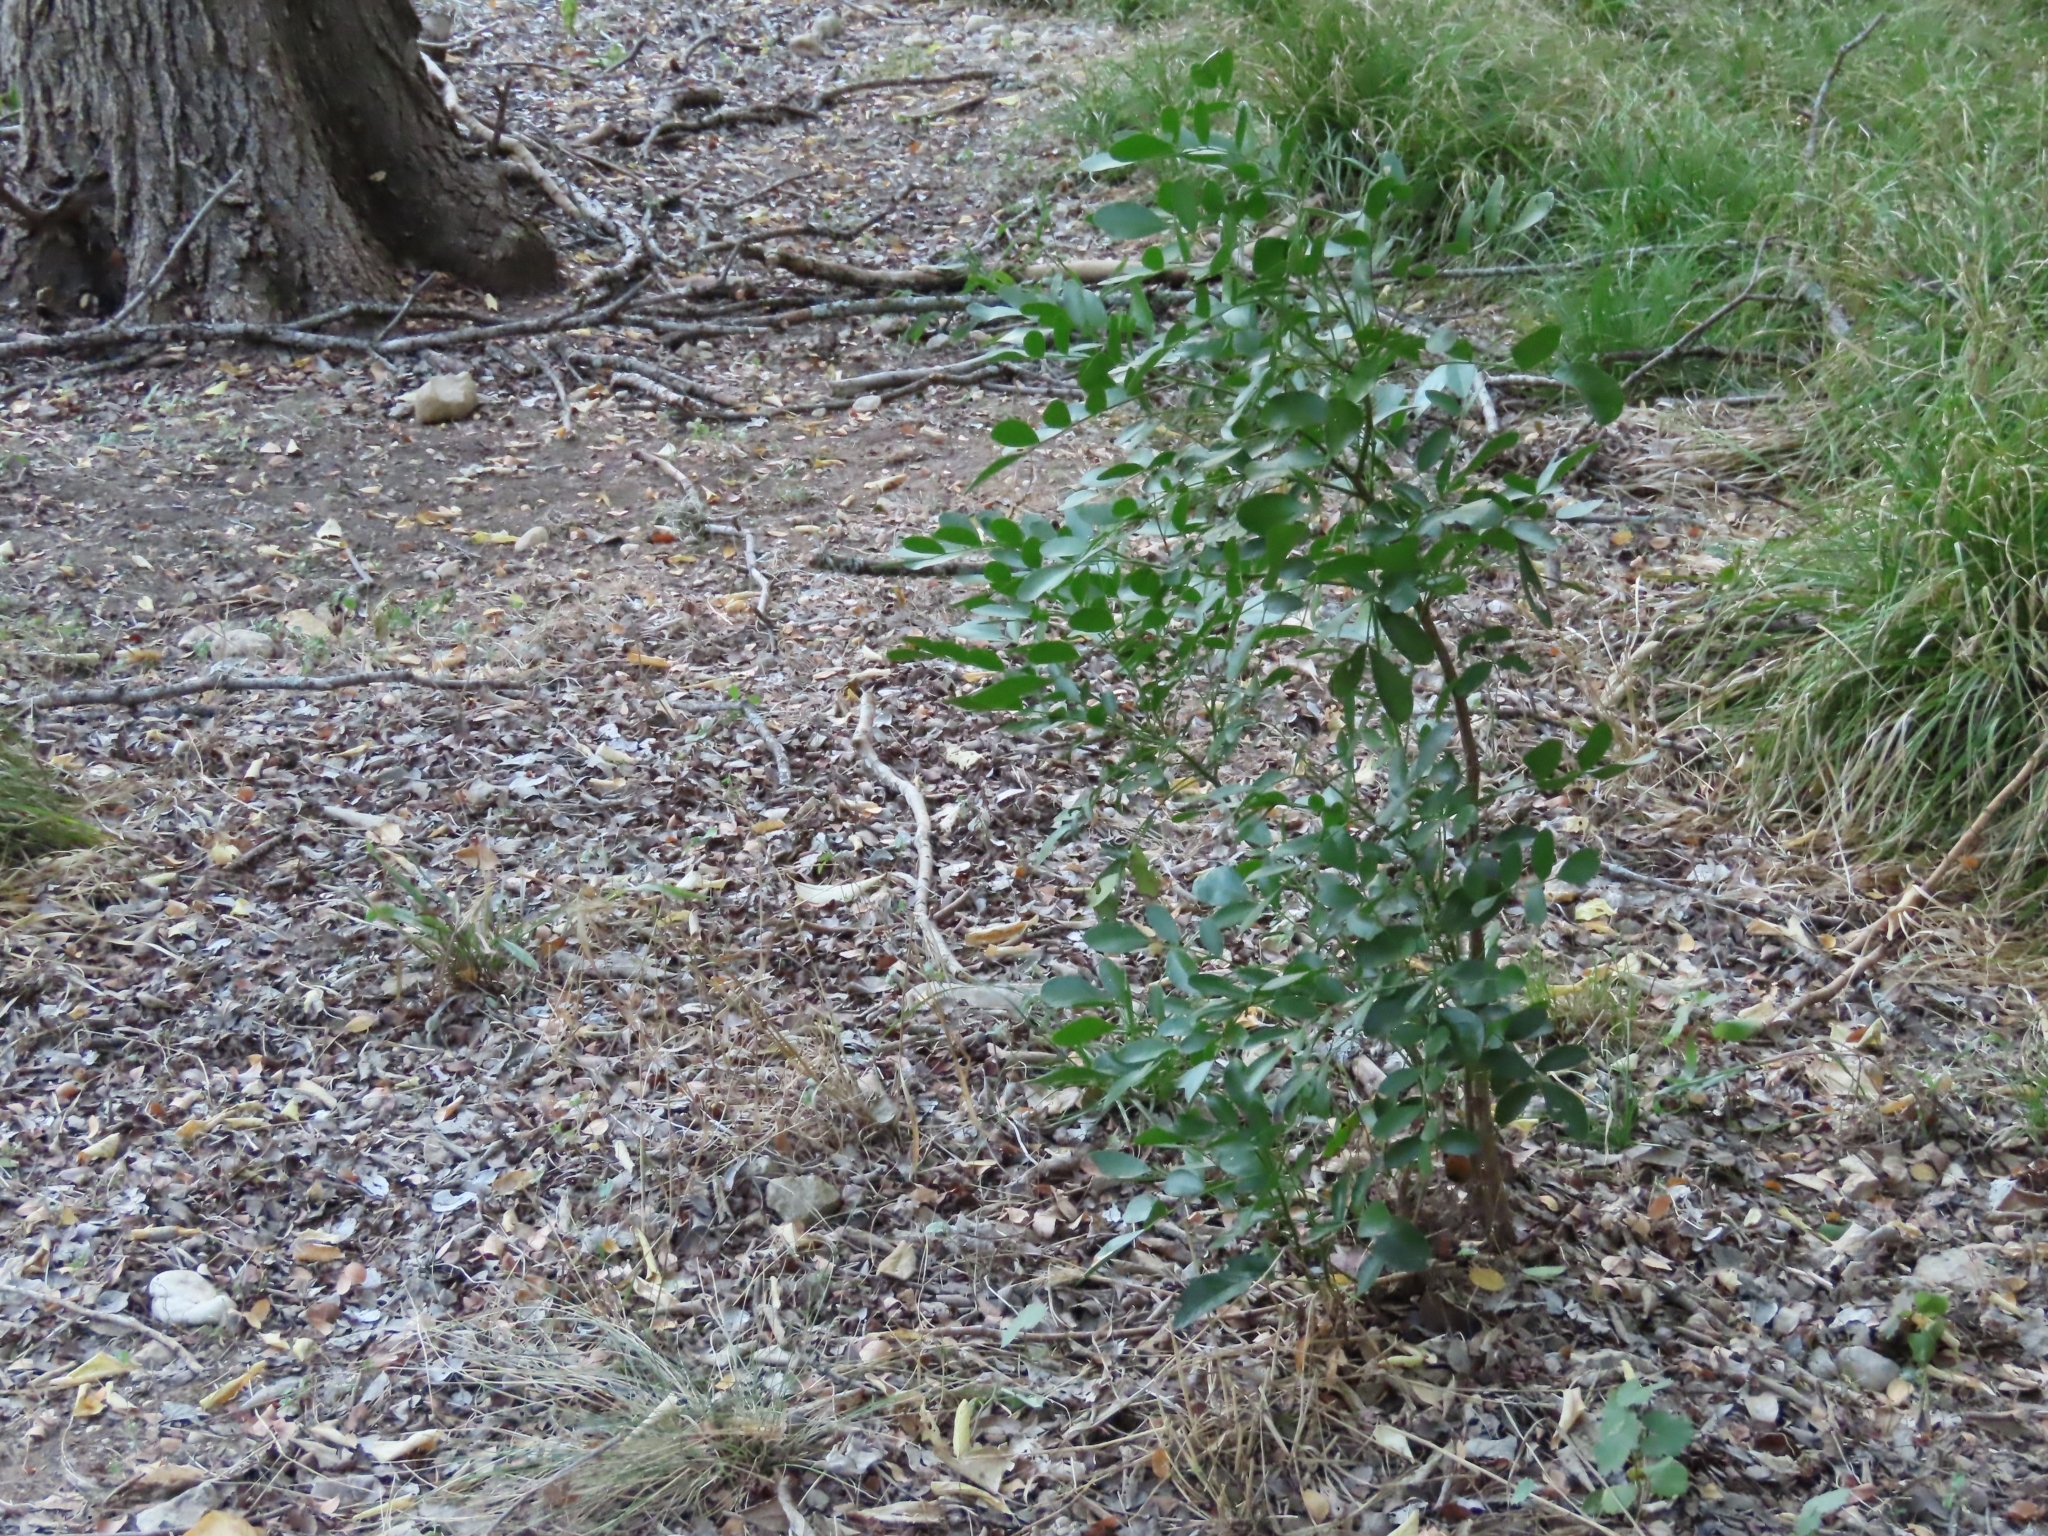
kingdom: Plantae
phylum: Tracheophyta
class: Magnoliopsida
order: Fabales
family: Fabaceae
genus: Dermatophyllum
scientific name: Dermatophyllum secundiflorum
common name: Texas-mountain-laurel
